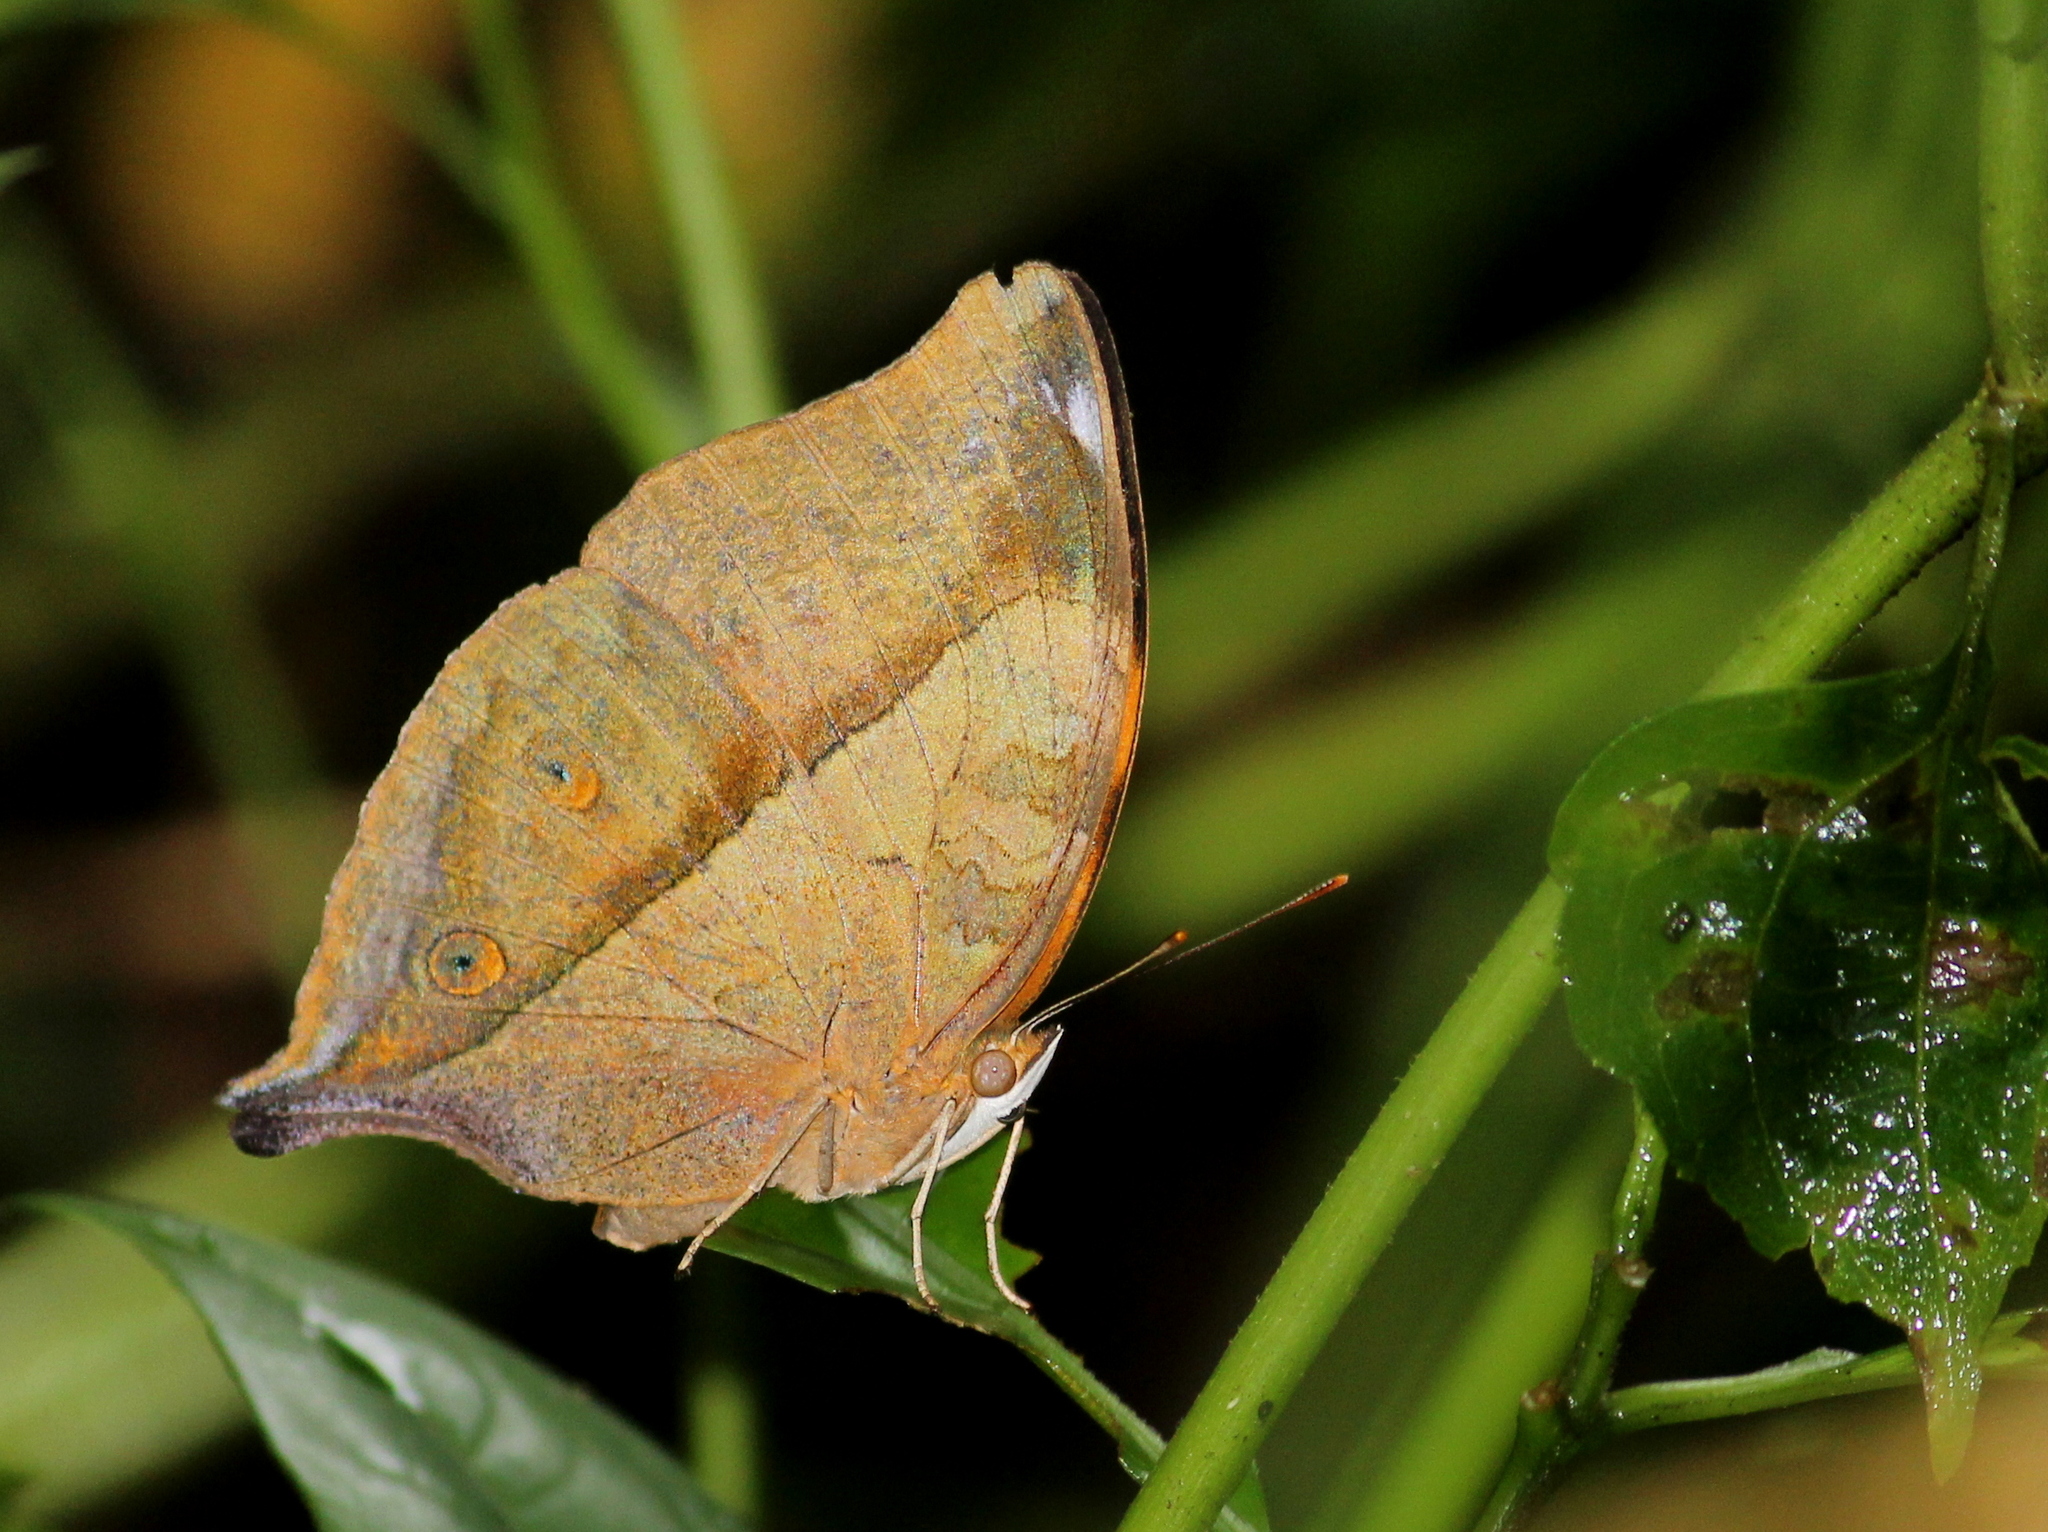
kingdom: Animalia
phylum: Arthropoda
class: Insecta
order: Lepidoptera
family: Nymphalidae
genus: Doleschallia
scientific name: Doleschallia bisaltide
